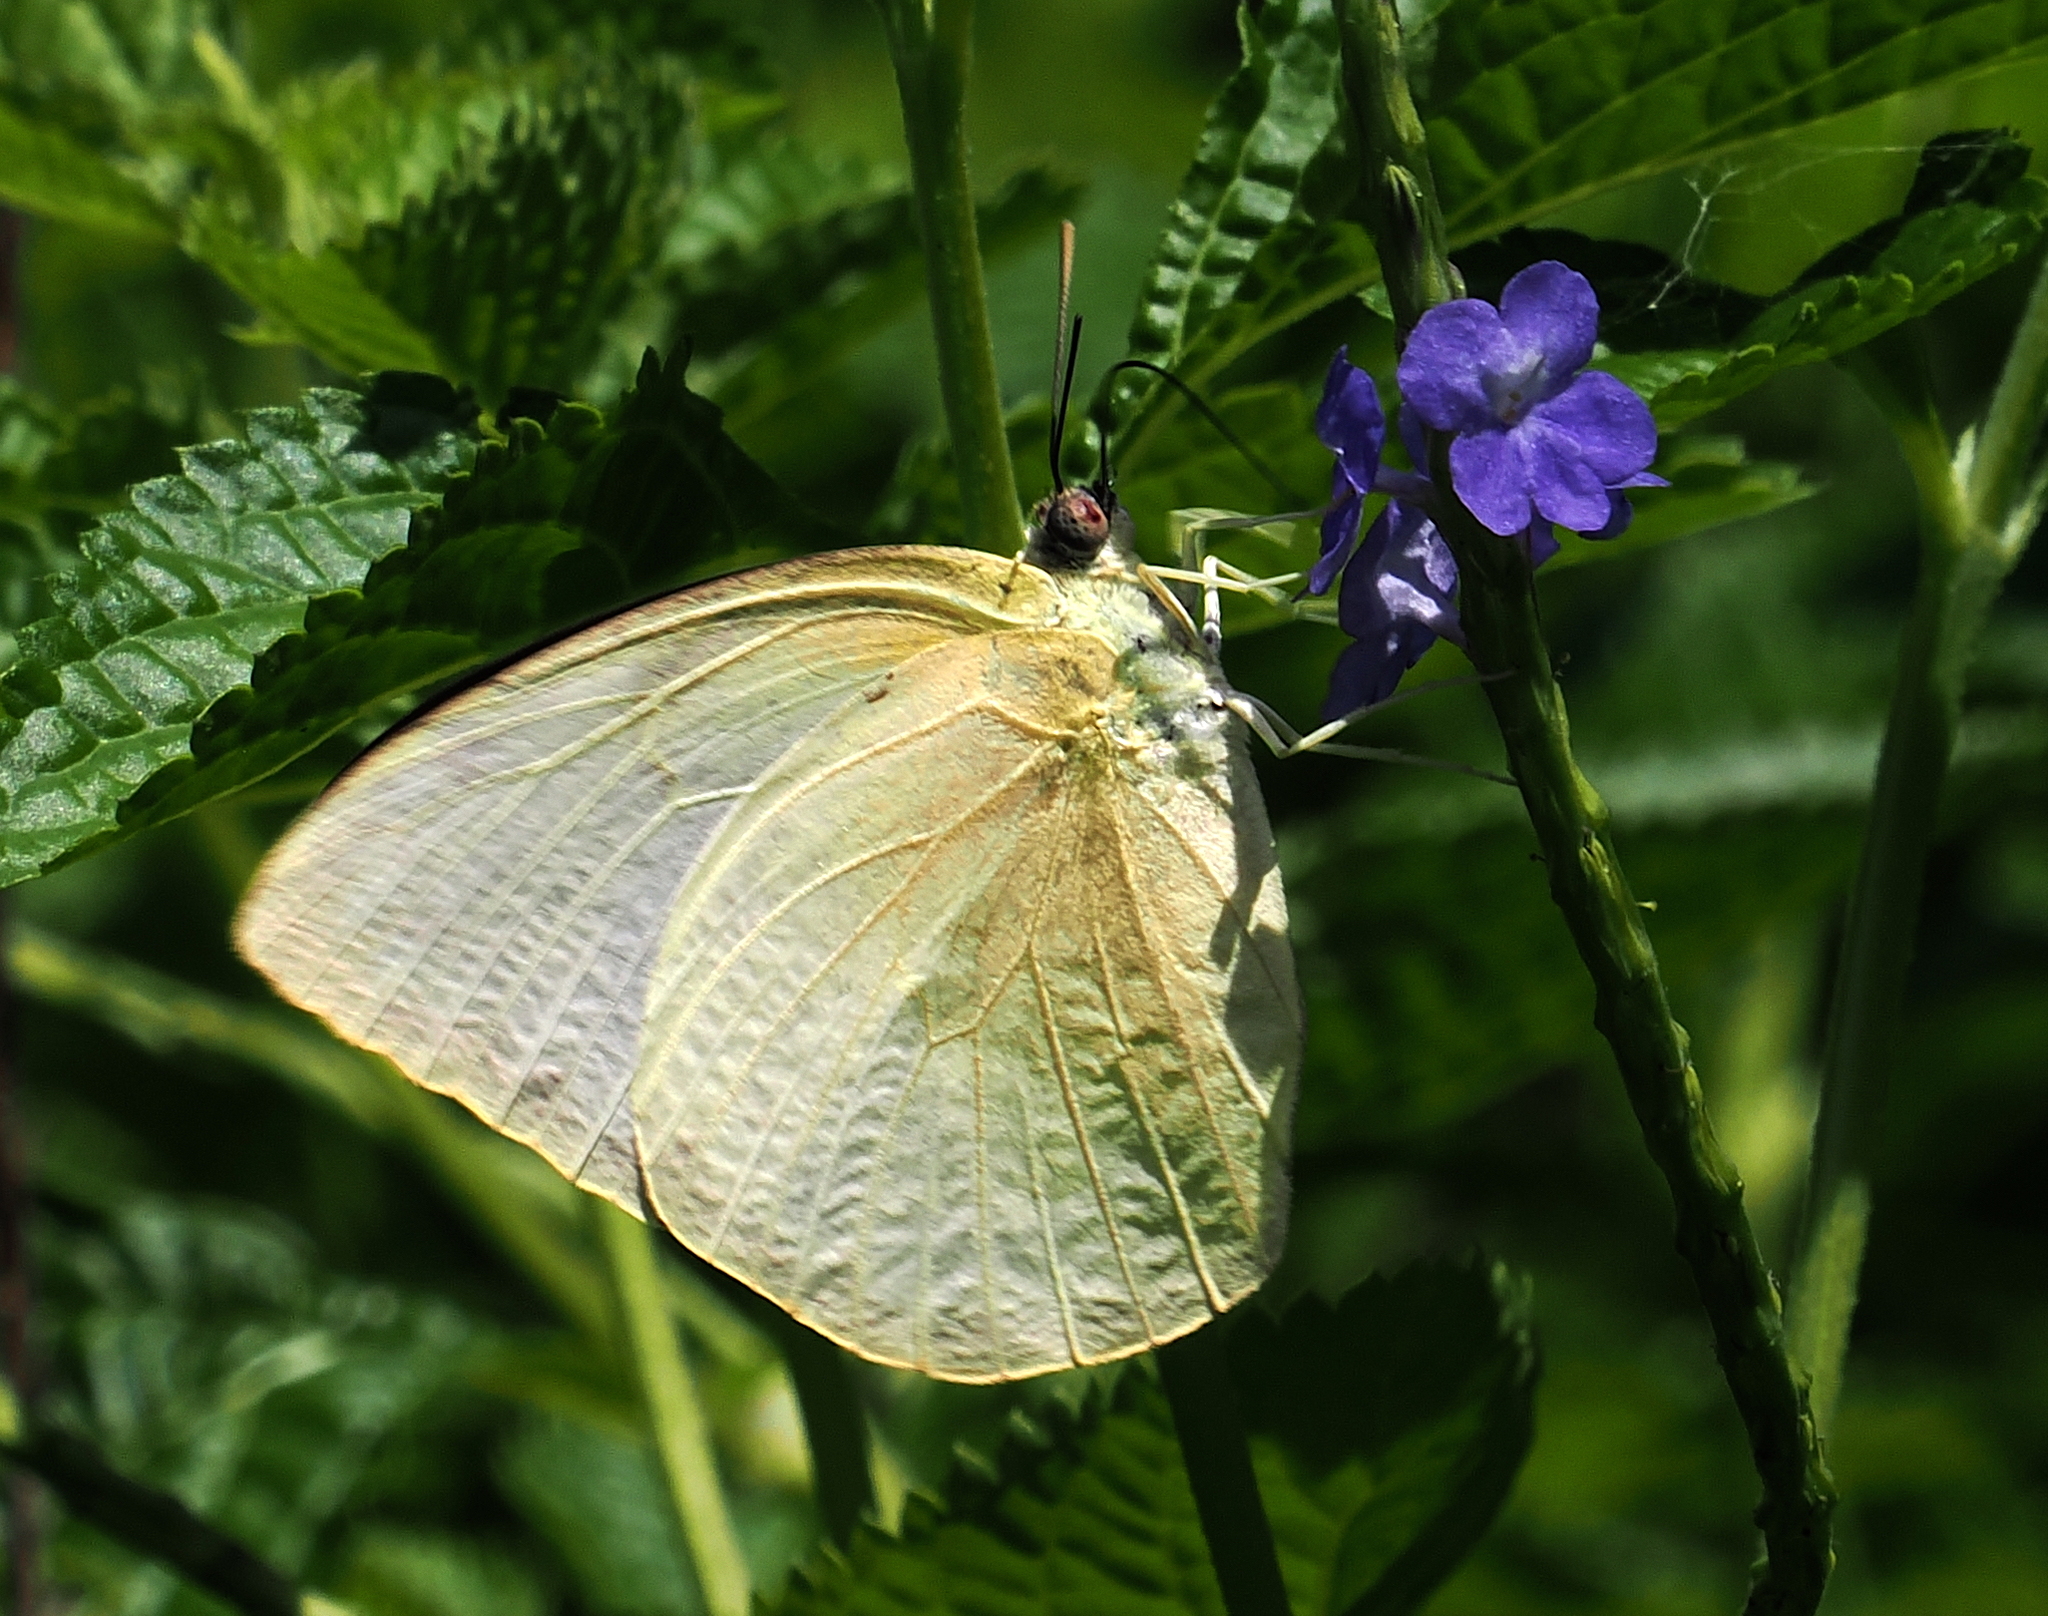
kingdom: Animalia
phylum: Arthropoda
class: Insecta
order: Lepidoptera
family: Pieridae
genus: Catopsilia
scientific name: Catopsilia pomona
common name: Common emigrant
